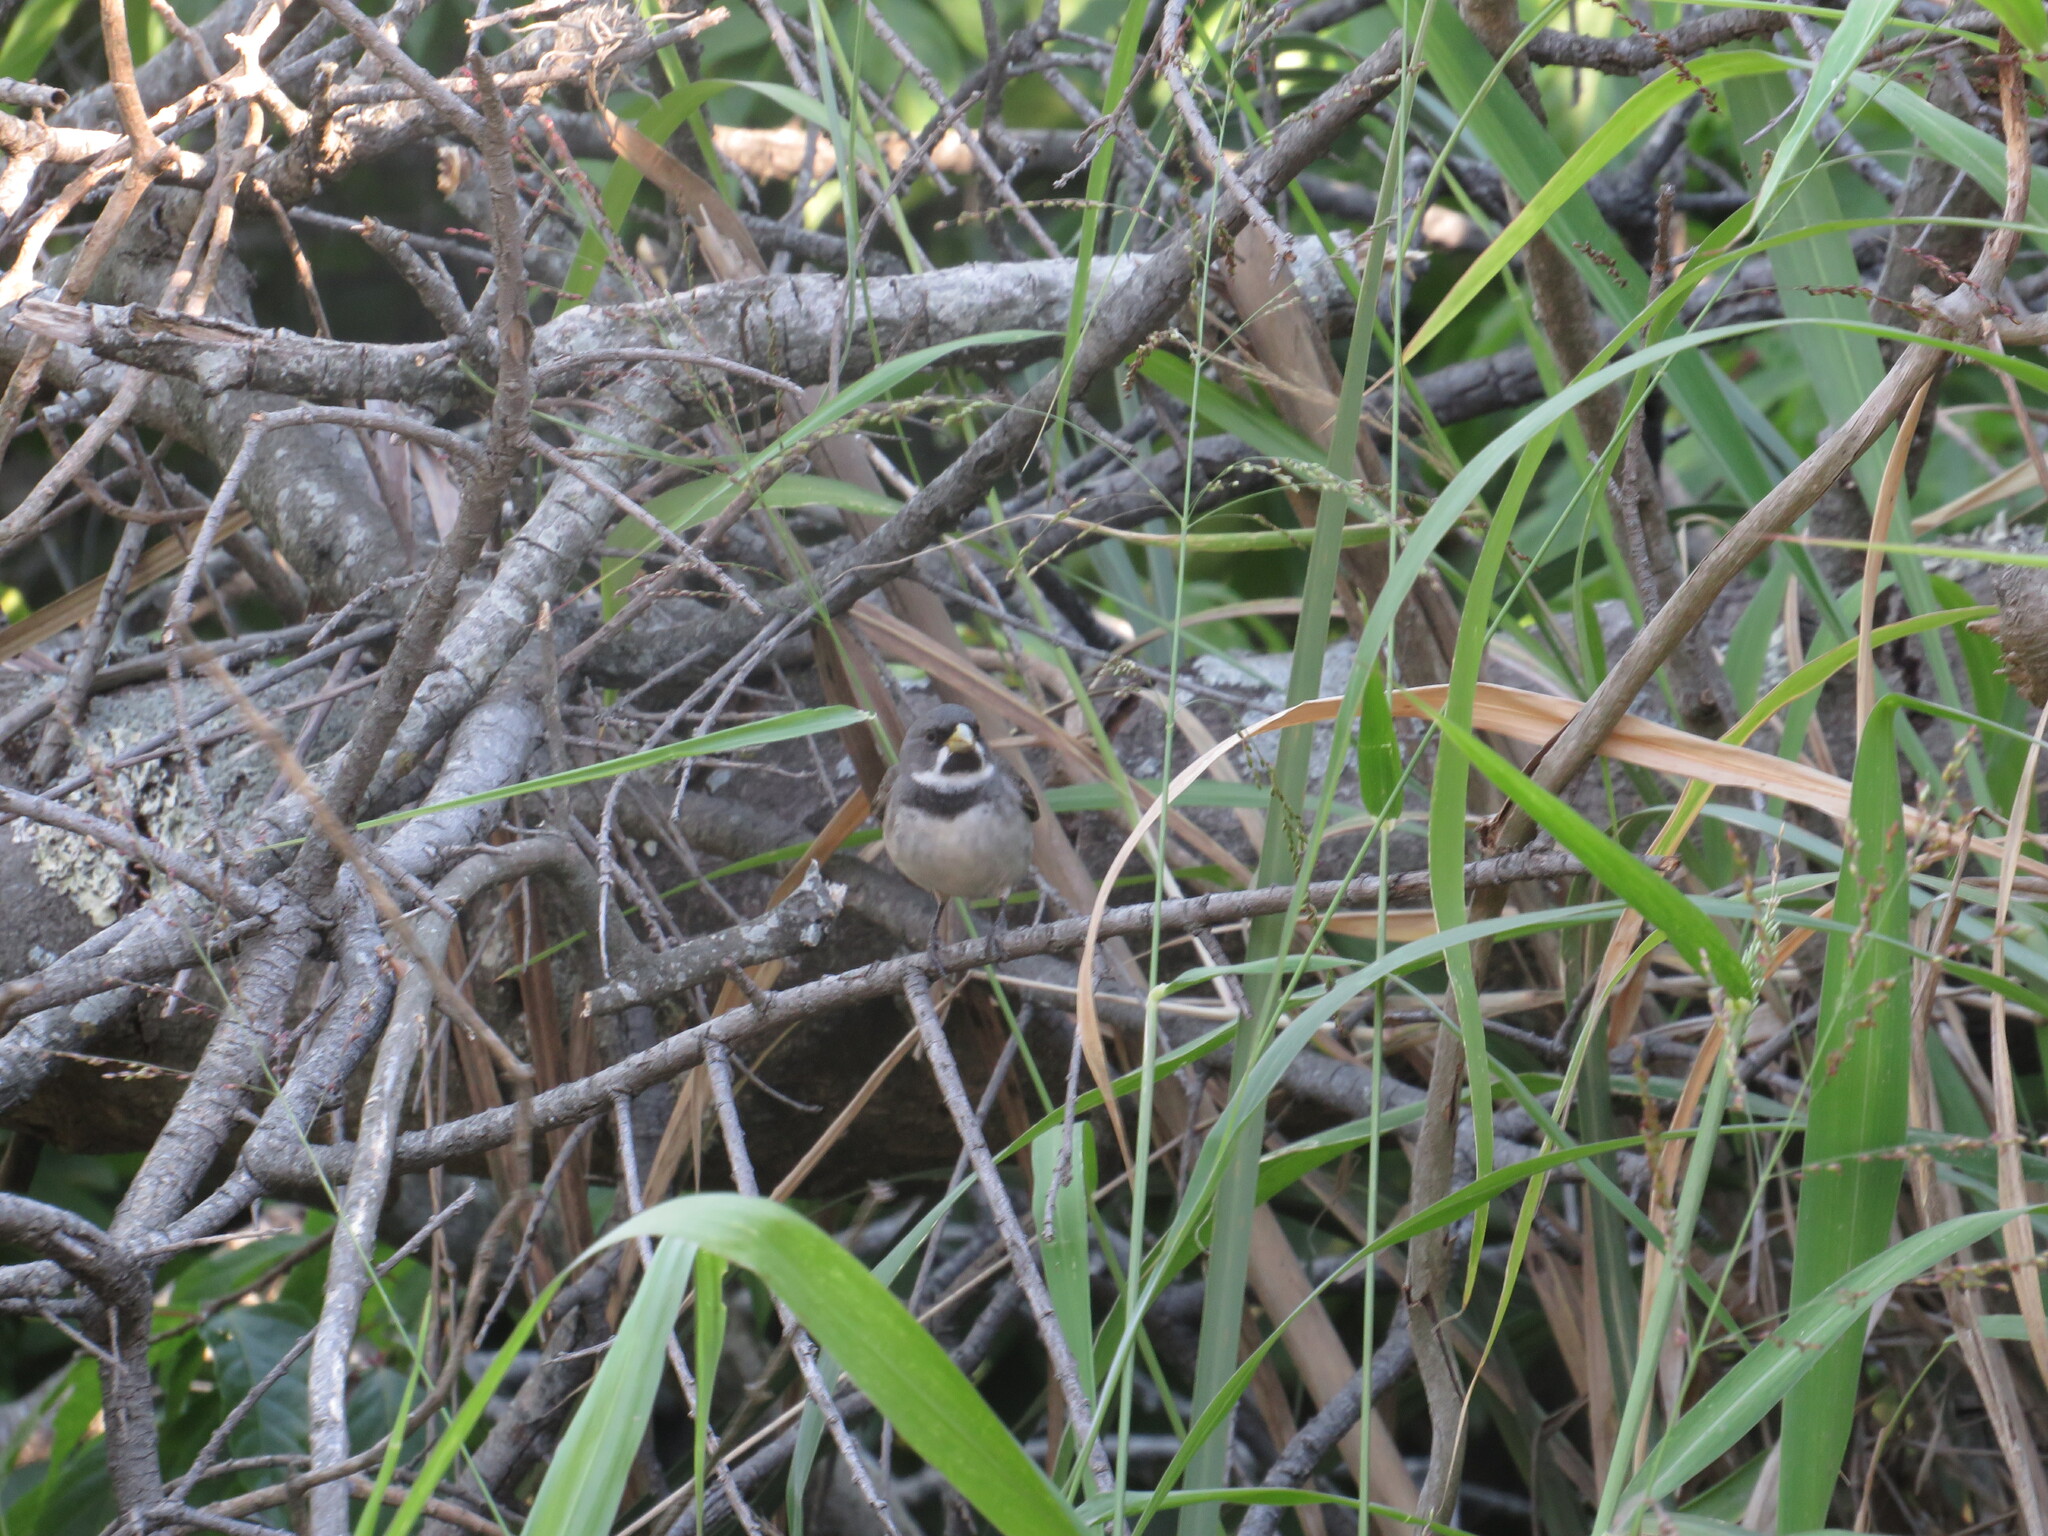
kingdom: Animalia
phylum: Chordata
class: Aves
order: Passeriformes
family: Thraupidae
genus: Sporophila
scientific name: Sporophila caerulescens
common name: Double-collared seedeater
